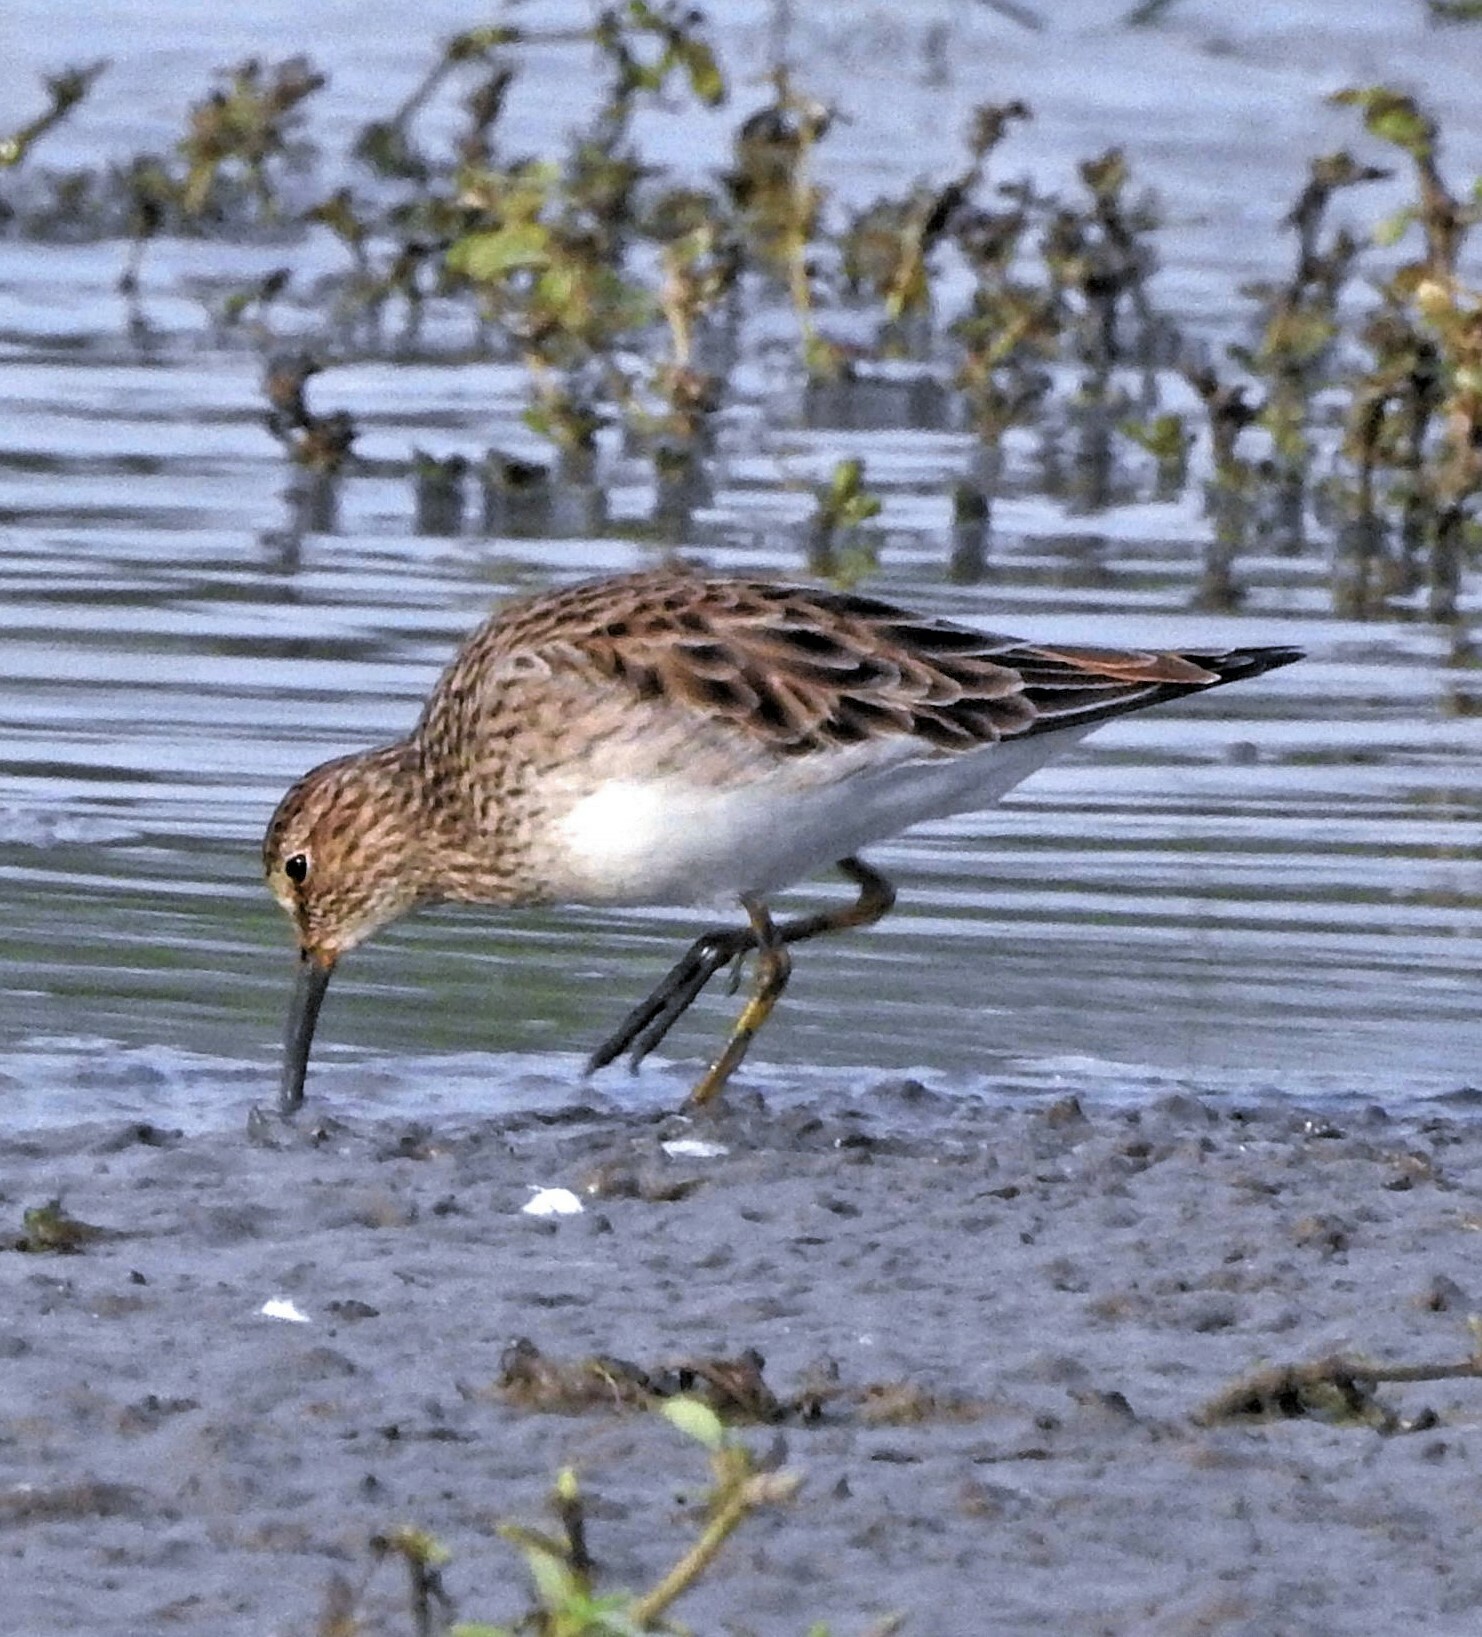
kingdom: Animalia
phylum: Chordata
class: Aves
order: Charadriiformes
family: Scolopacidae
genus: Calidris
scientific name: Calidris melanotos
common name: Pectoral sandpiper
